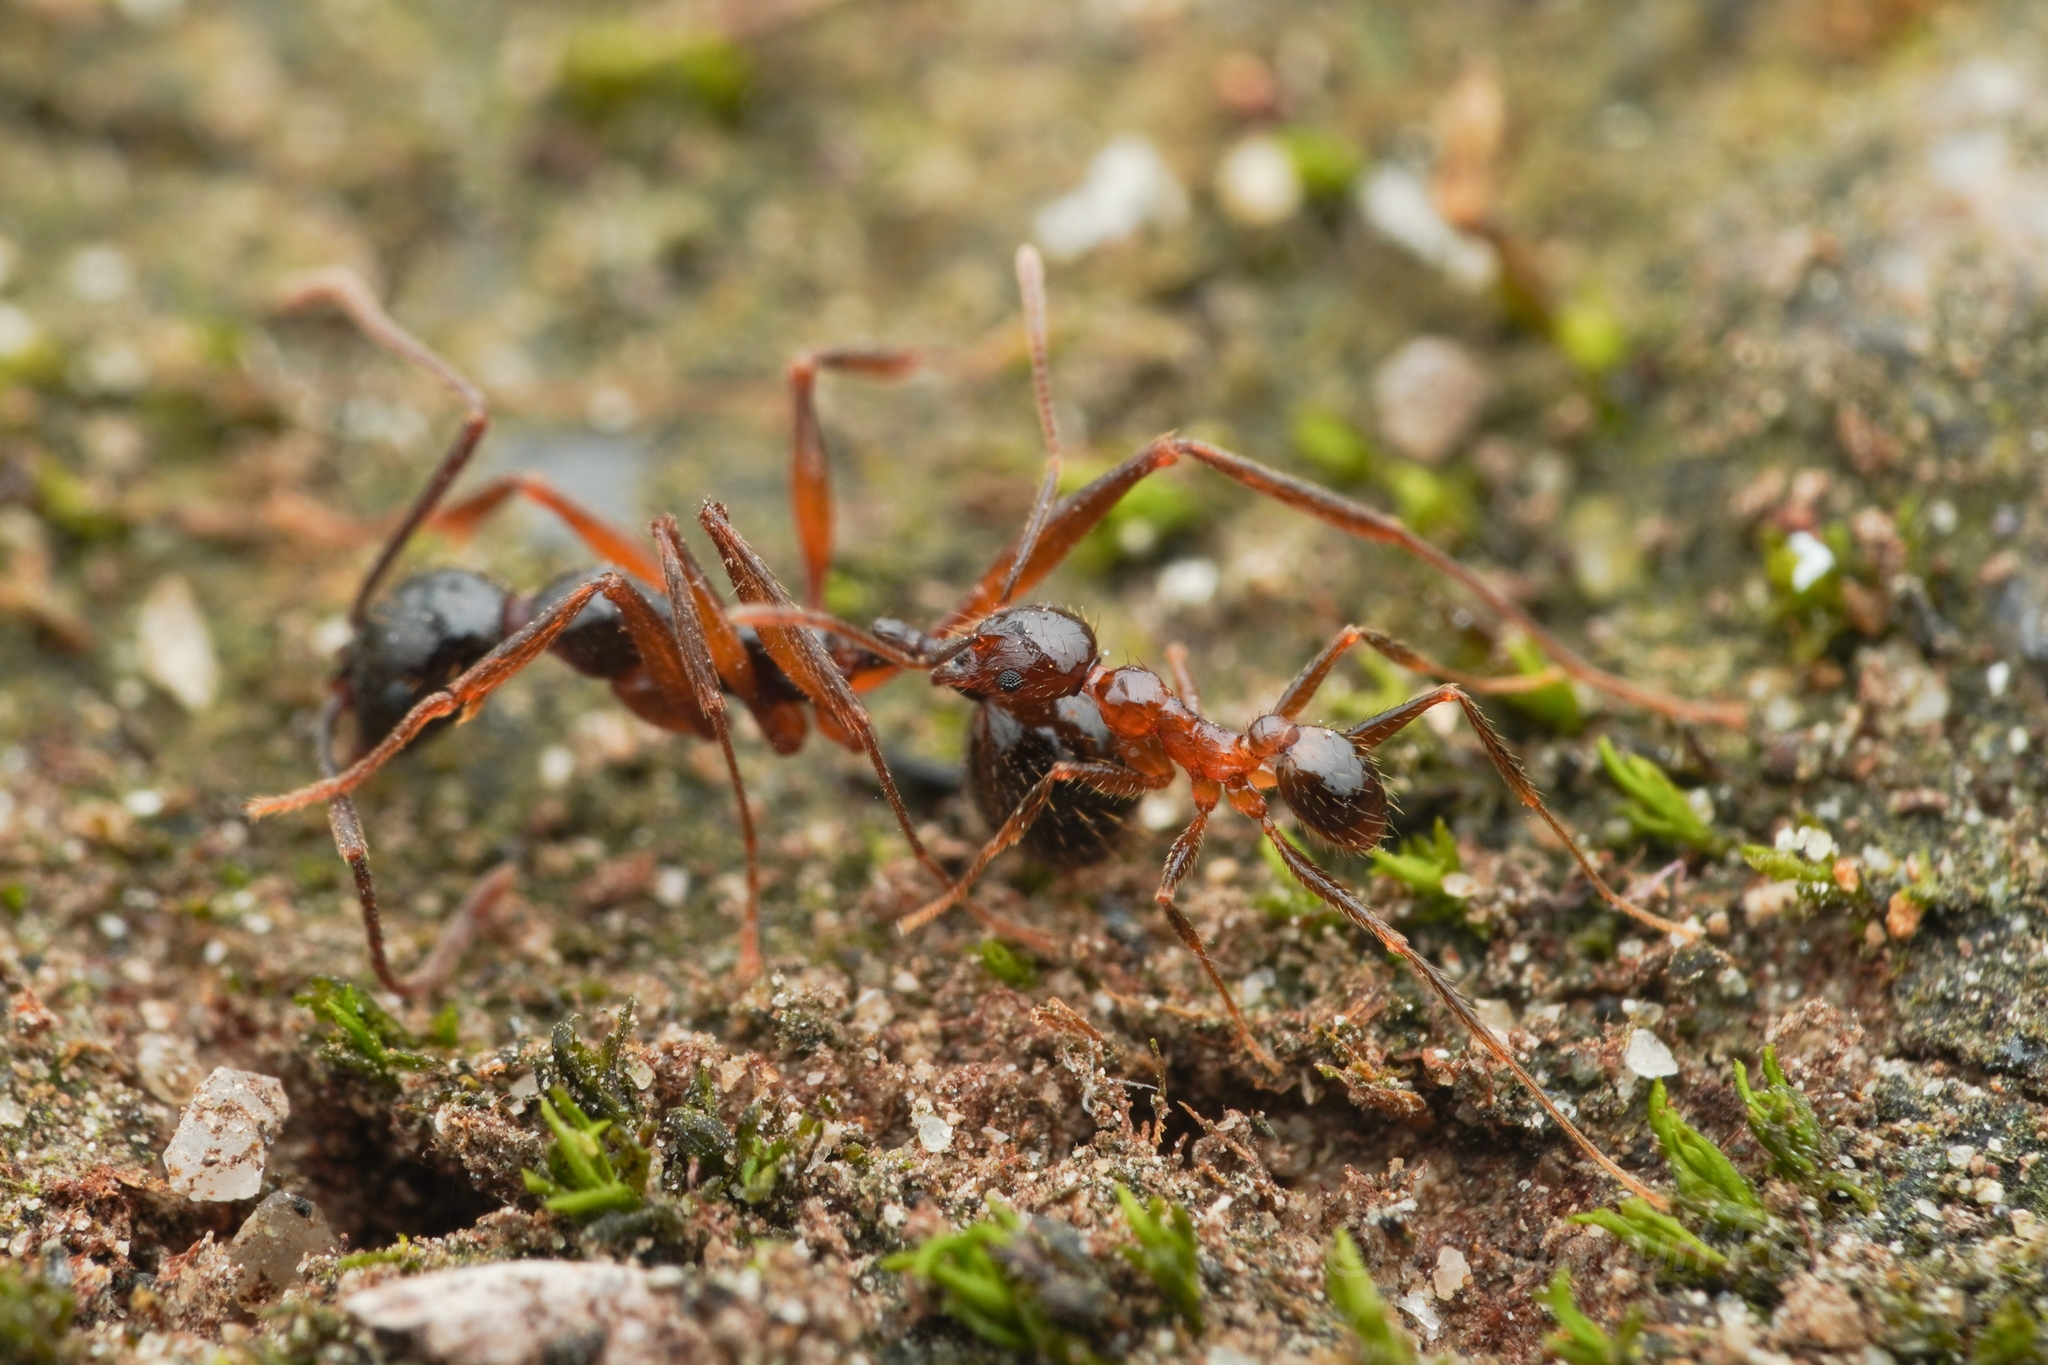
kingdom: Animalia
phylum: Arthropoda
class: Insecta
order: Hymenoptera
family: Formicidae
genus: Pheidole
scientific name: Pheidole noda
